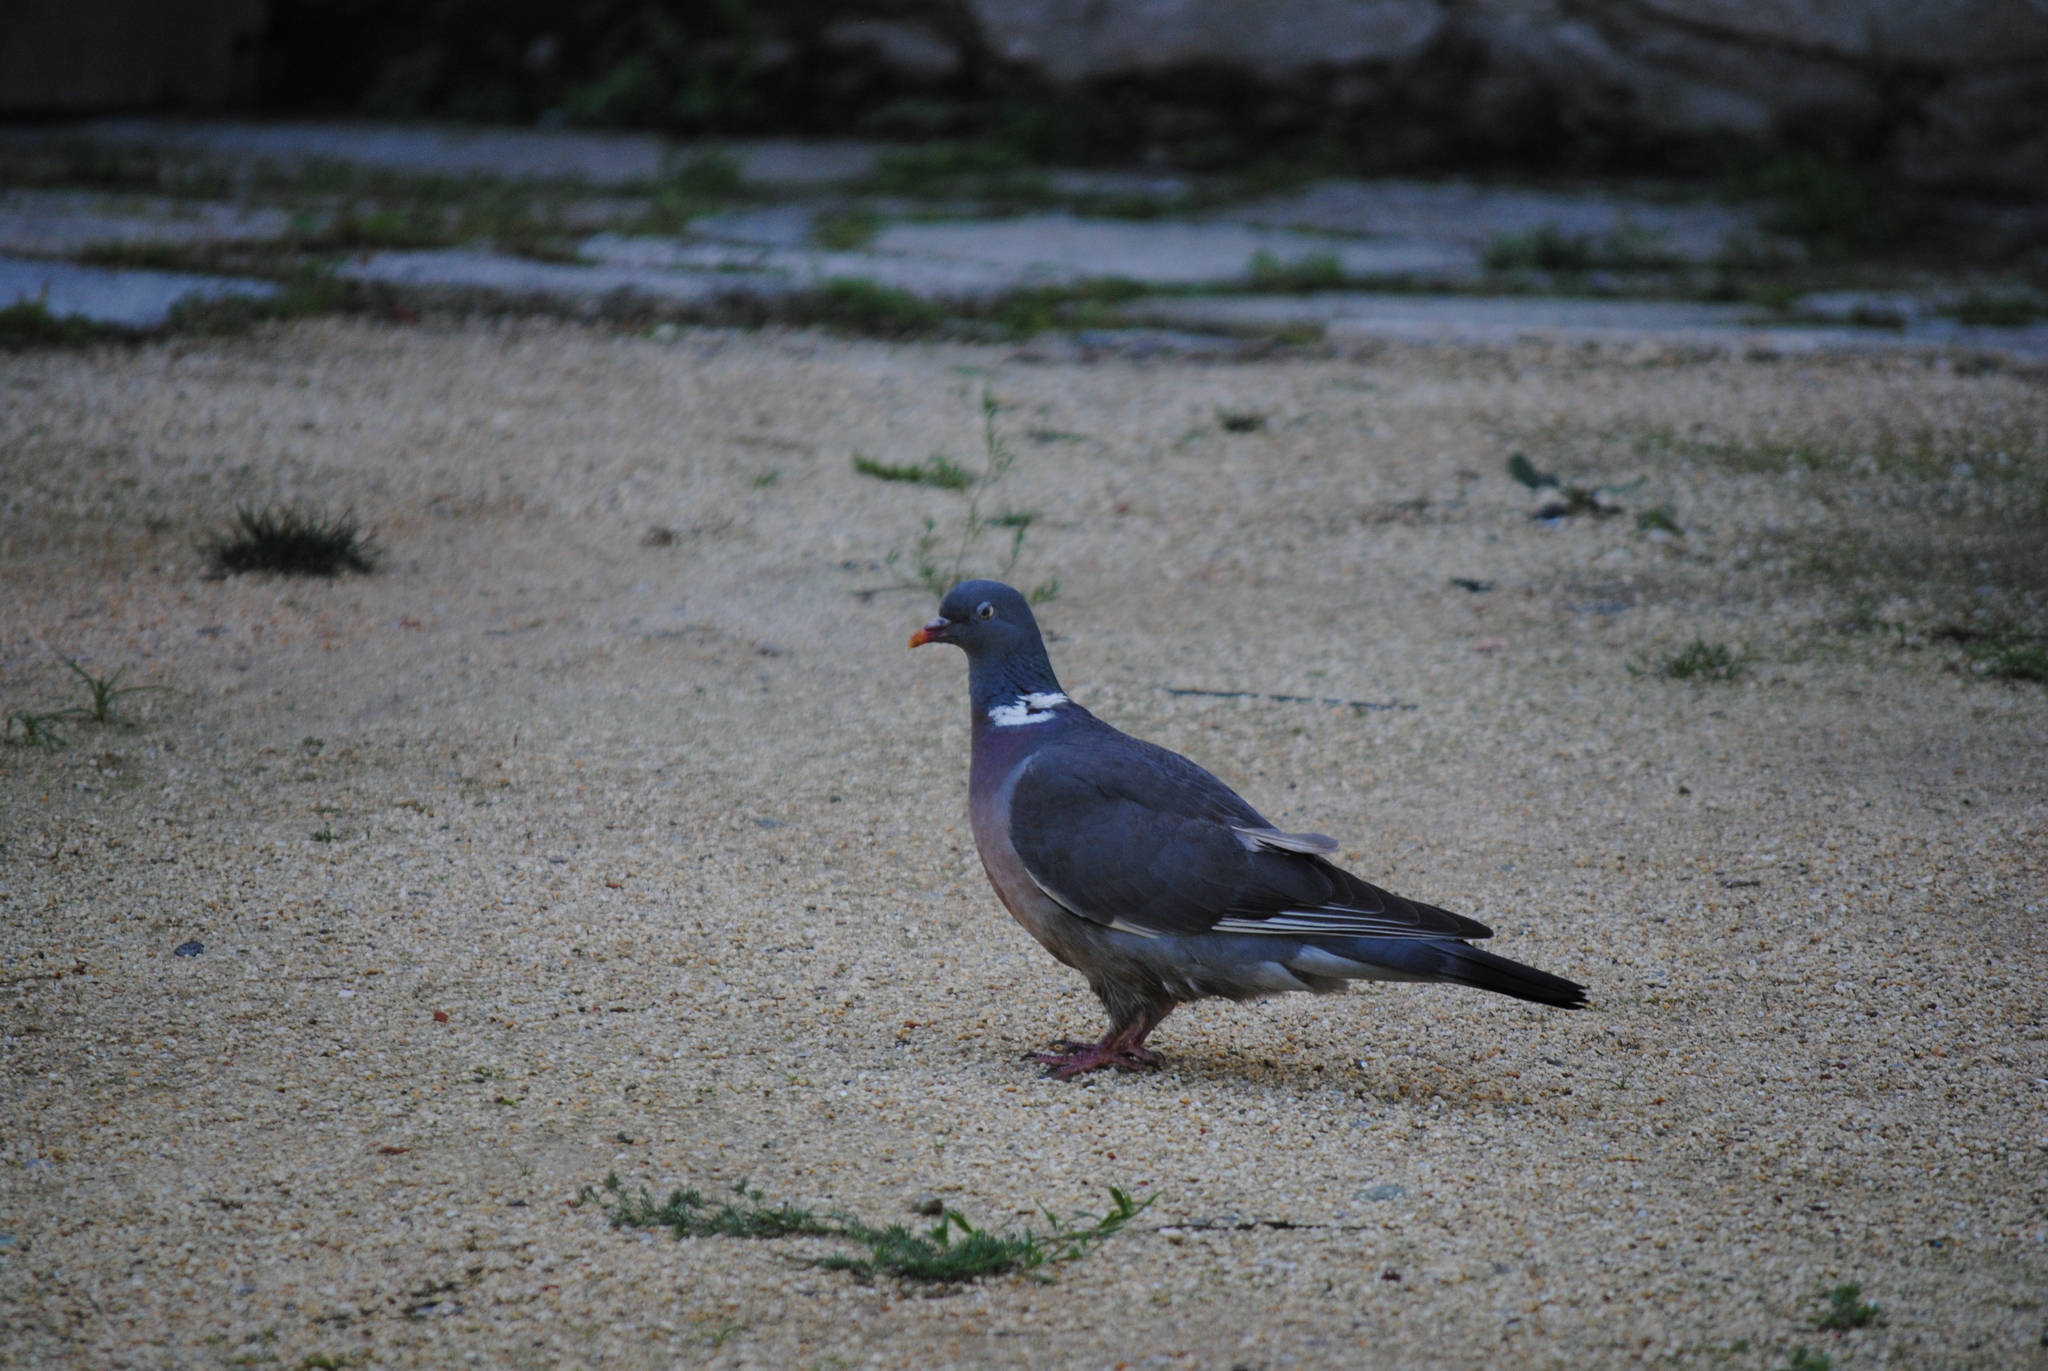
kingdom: Animalia
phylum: Chordata
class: Aves
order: Columbiformes
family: Columbidae
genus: Columba
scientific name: Columba palumbus
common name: Common wood pigeon
